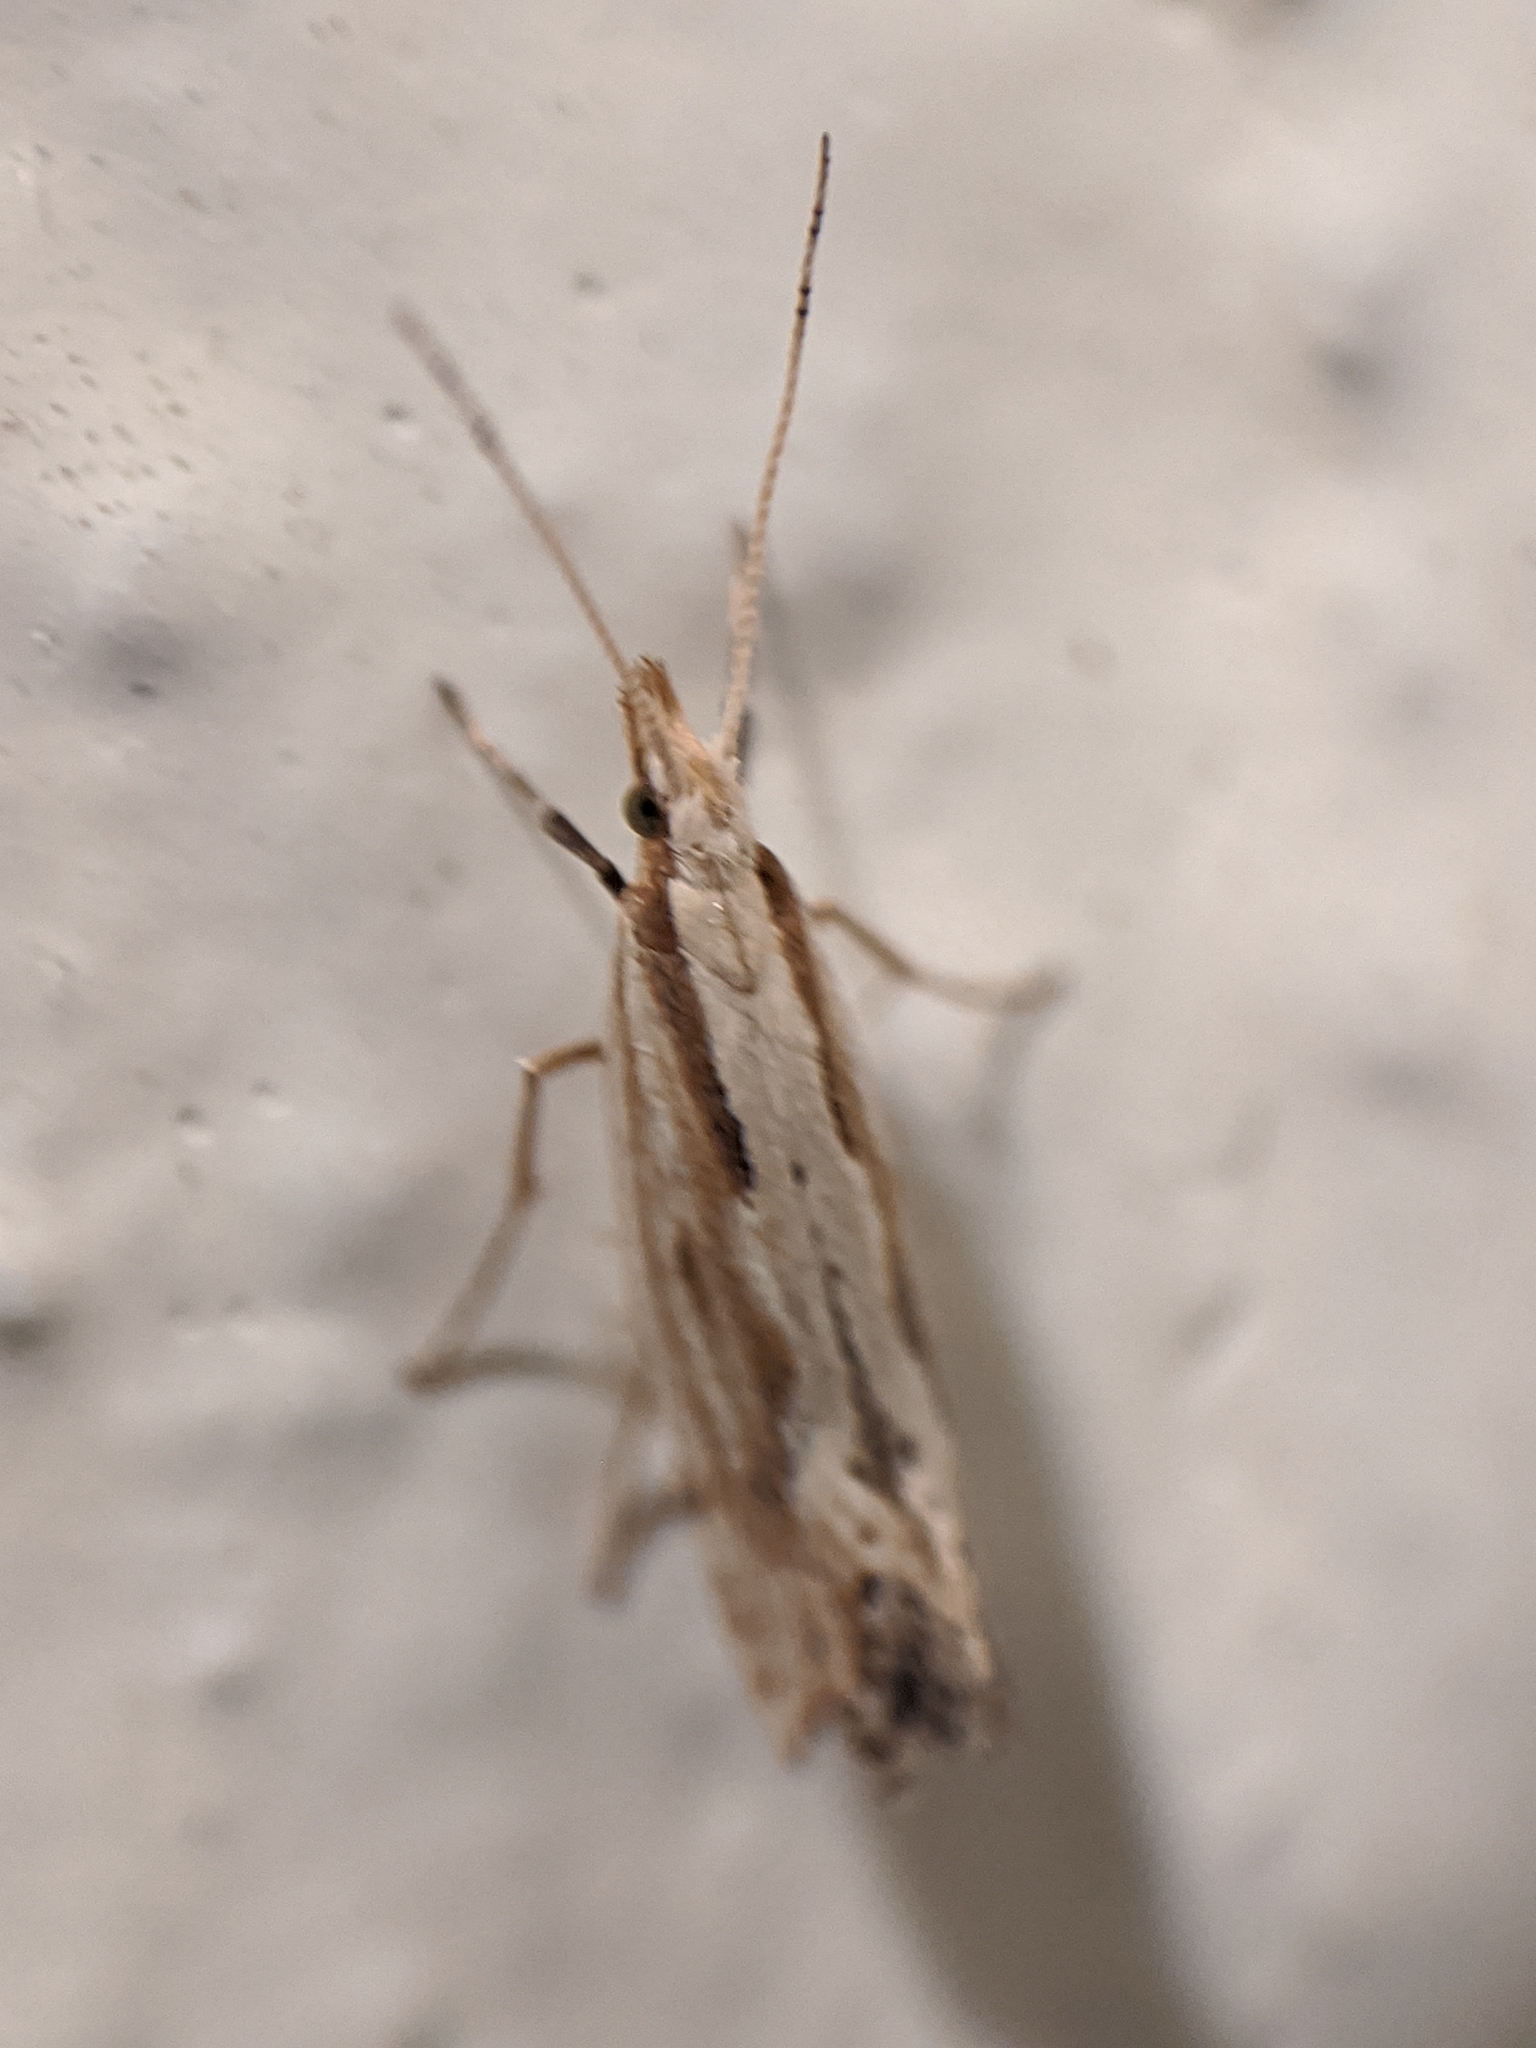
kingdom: Animalia
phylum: Arthropoda
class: Insecta
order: Lepidoptera
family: Plutellidae
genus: Plutella
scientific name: Plutella porrectella
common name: Dame's rocket moth
